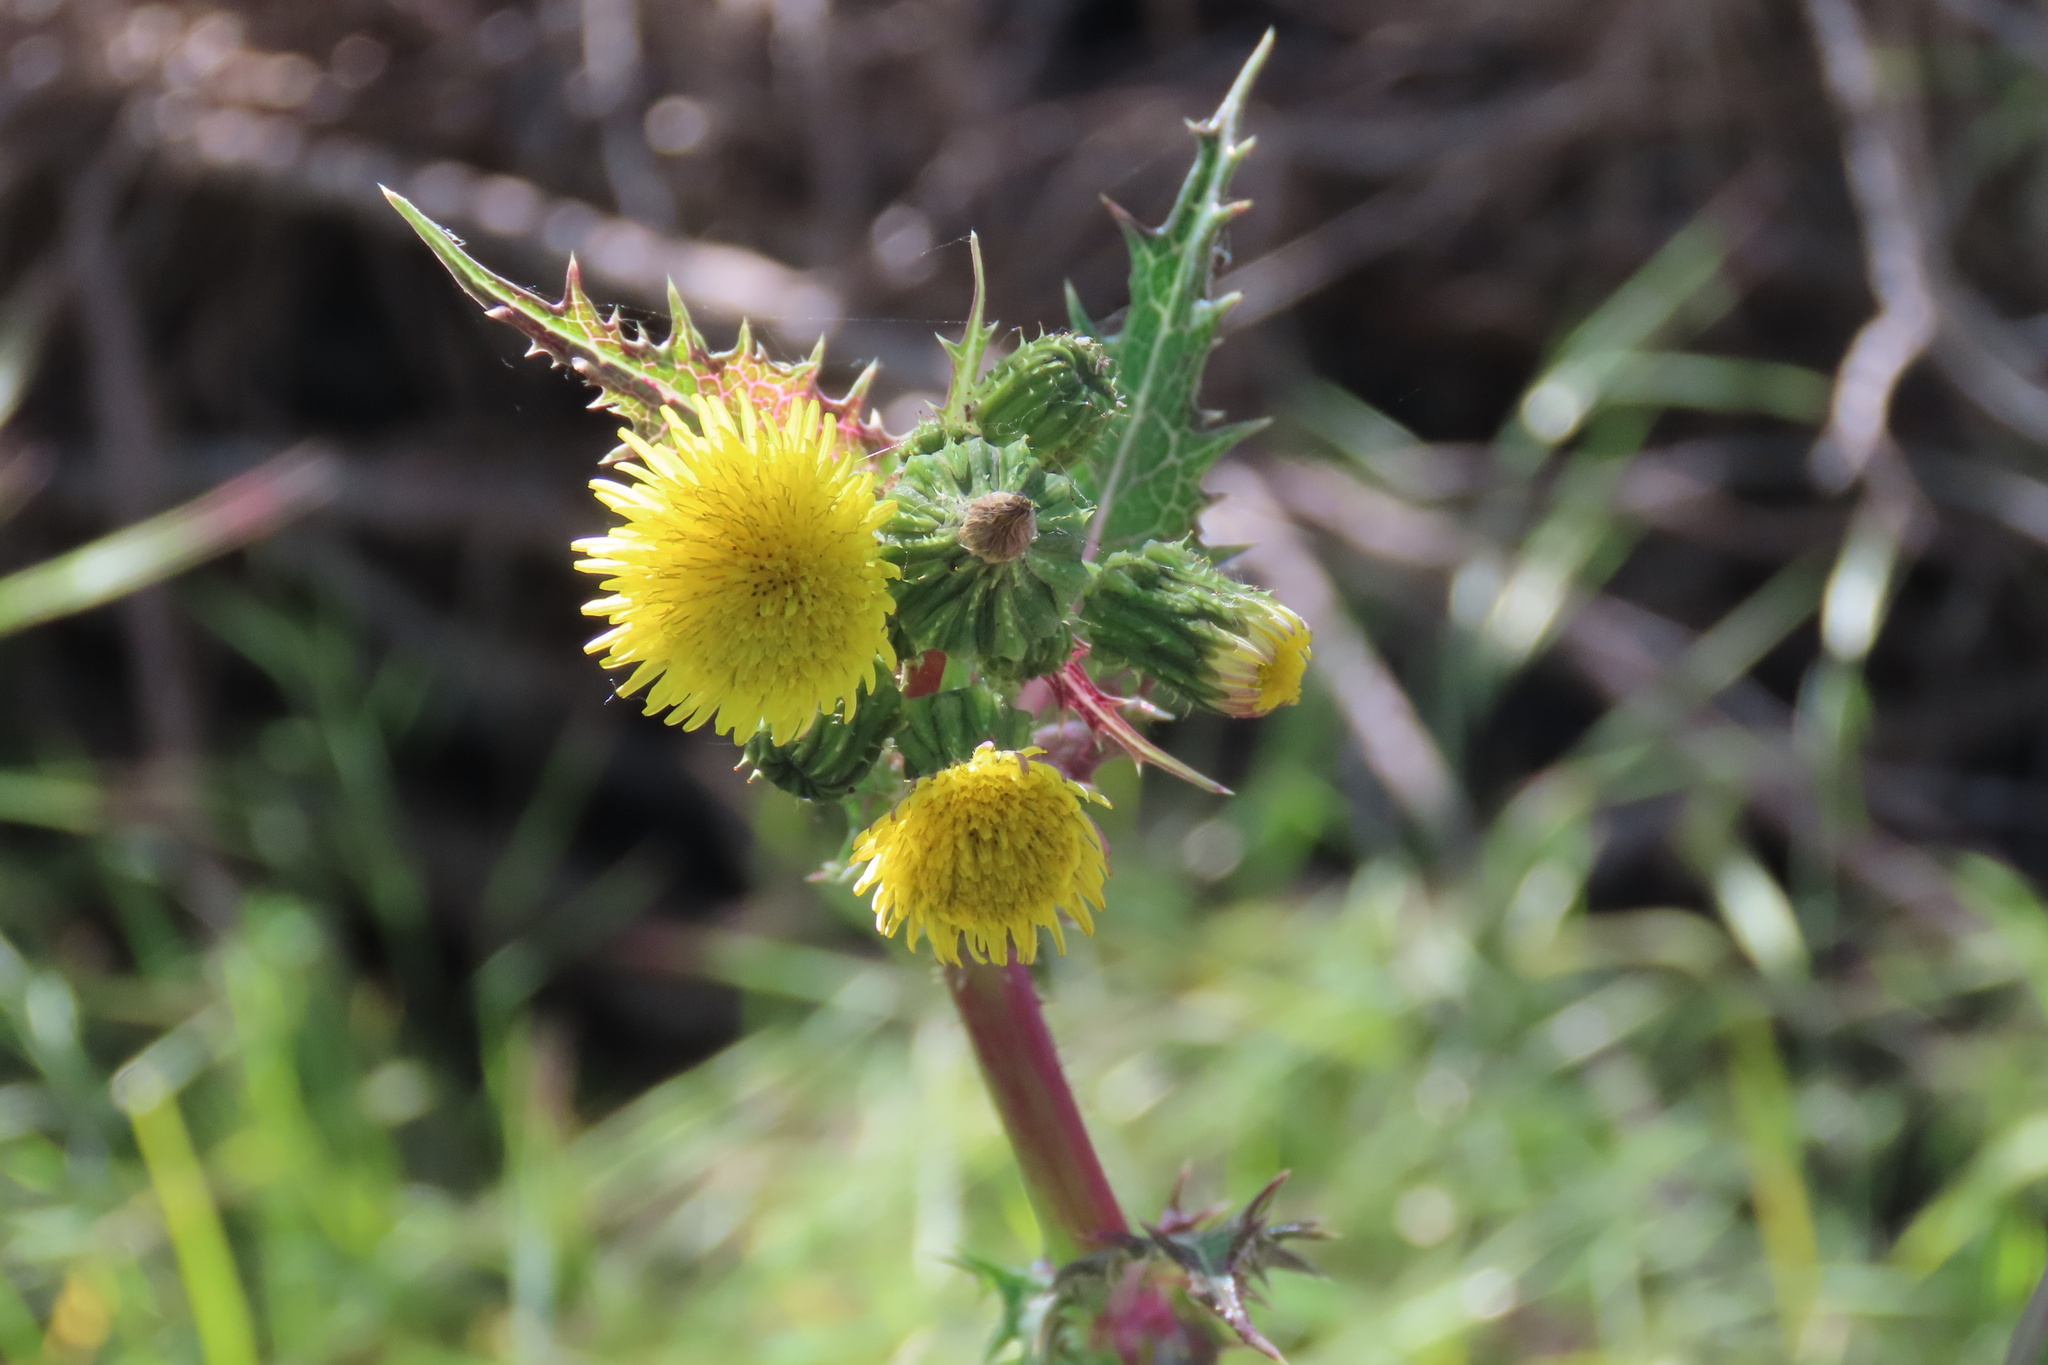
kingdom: Plantae
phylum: Tracheophyta
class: Magnoliopsida
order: Asterales
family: Asteraceae
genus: Sonchus
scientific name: Sonchus asper
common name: Prickly sow-thistle
